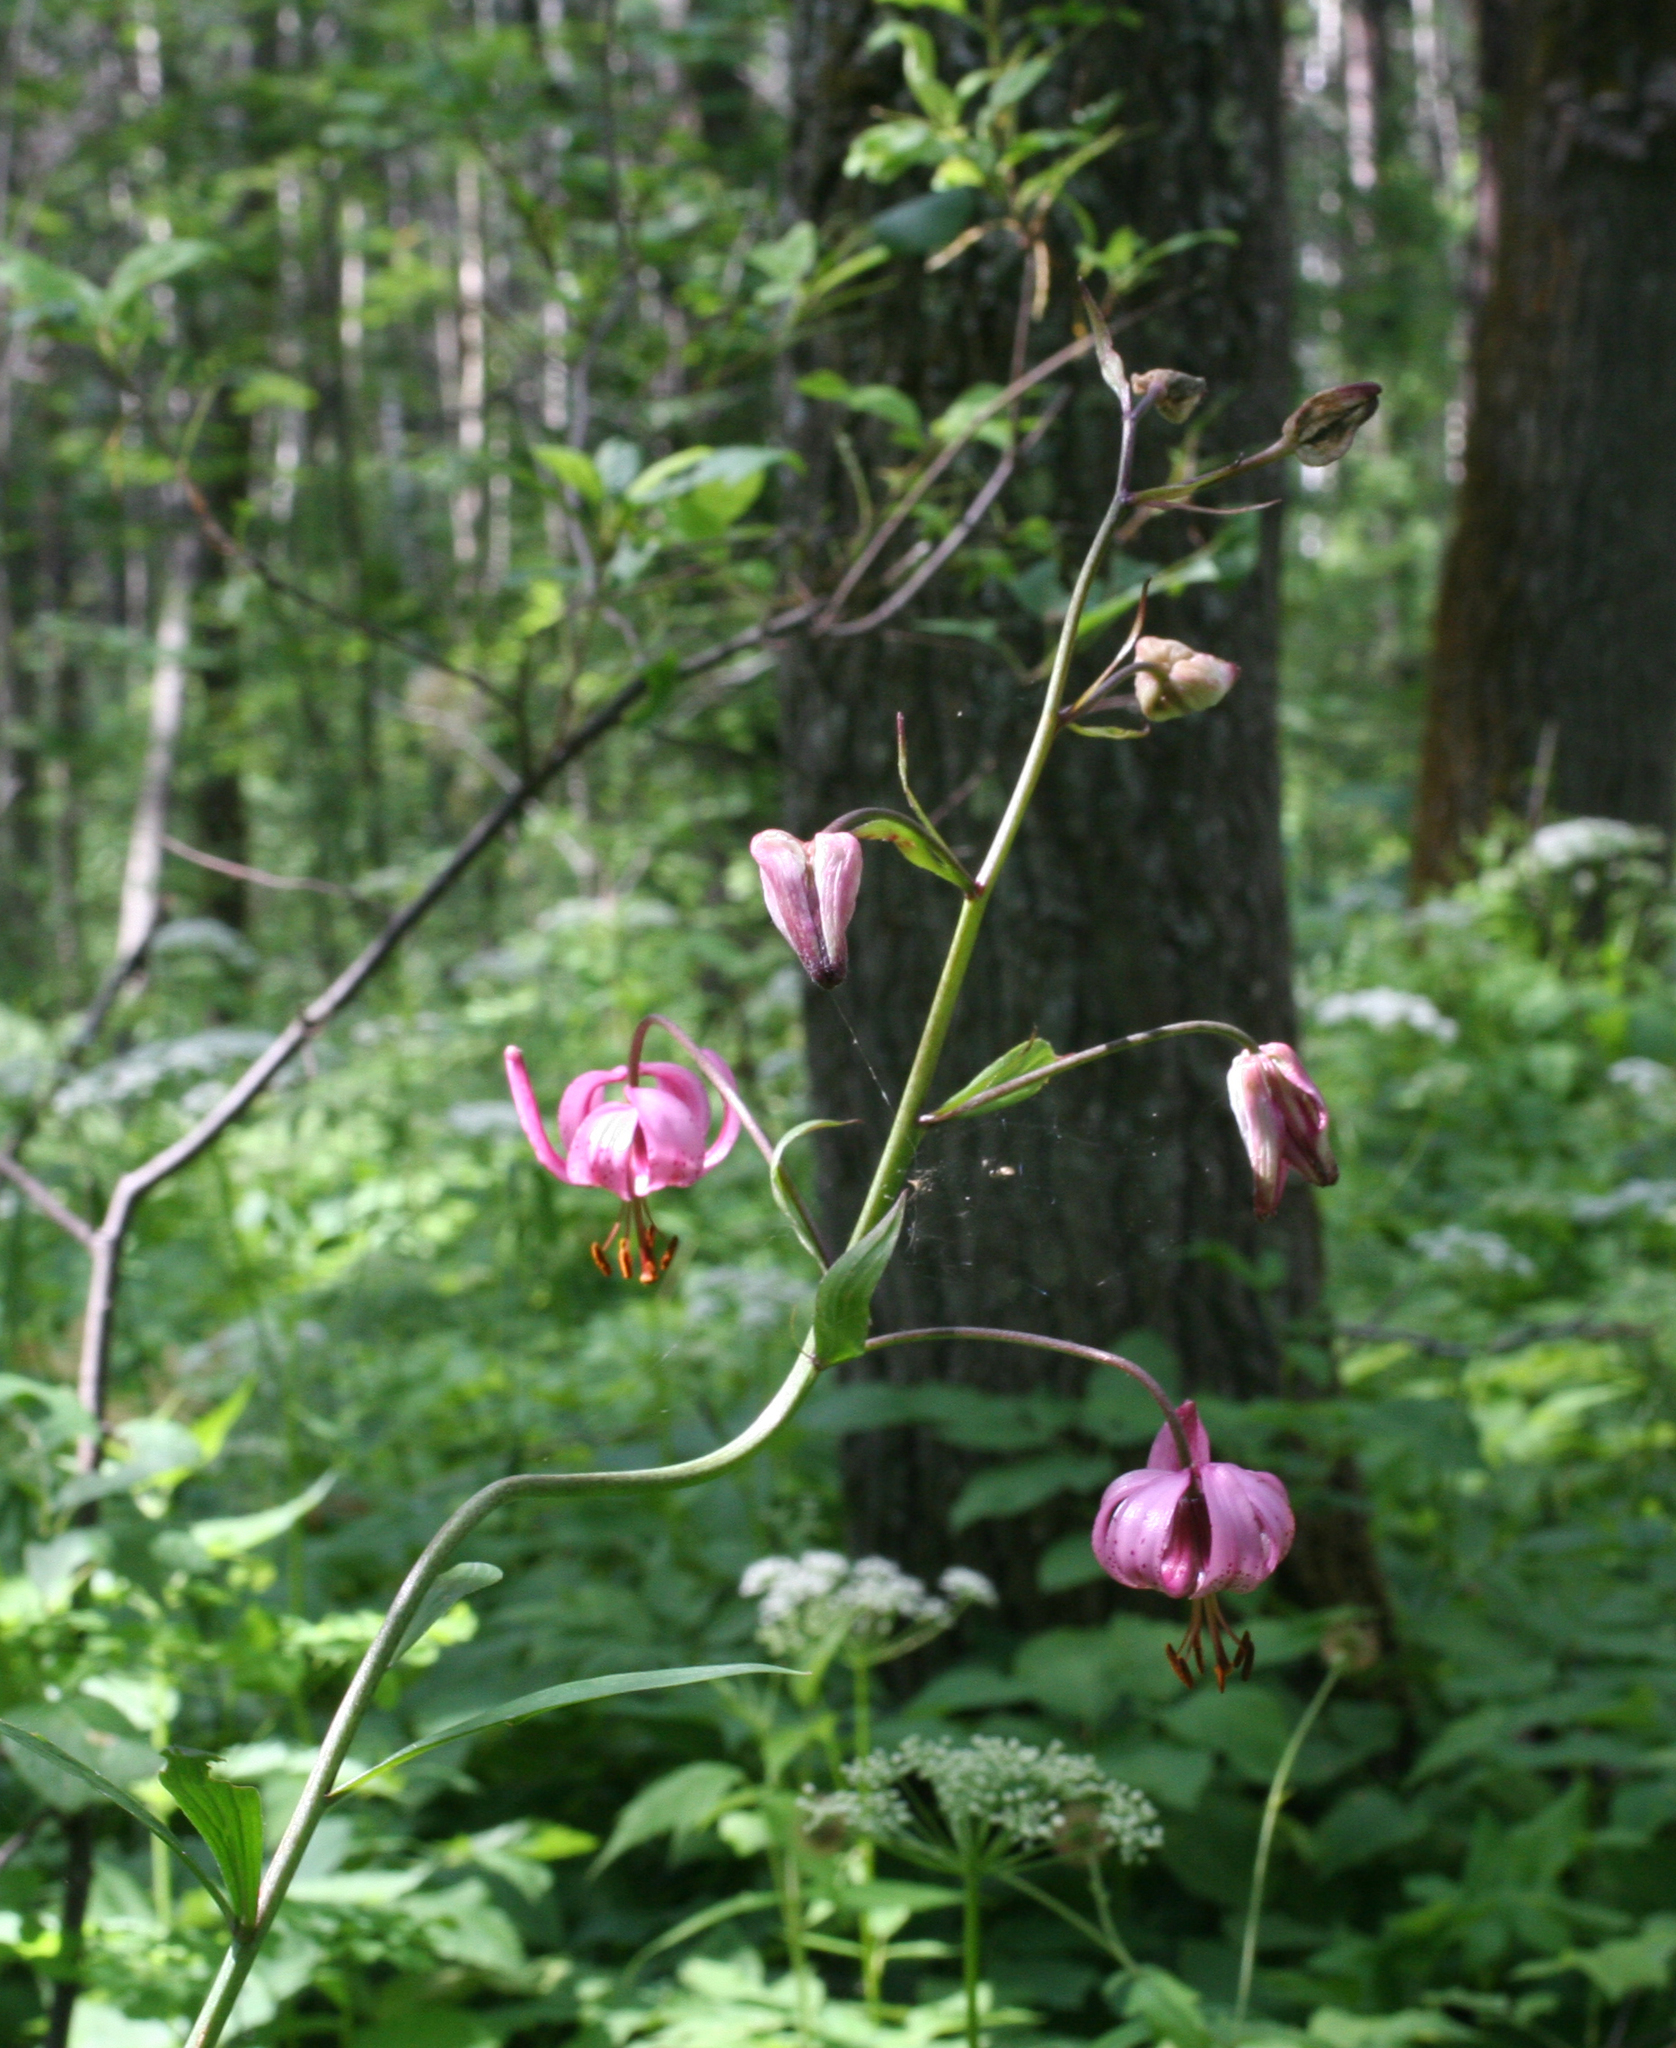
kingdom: Plantae
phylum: Tracheophyta
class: Liliopsida
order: Liliales
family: Liliaceae
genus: Lilium
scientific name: Lilium martagon
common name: Martagon lily
